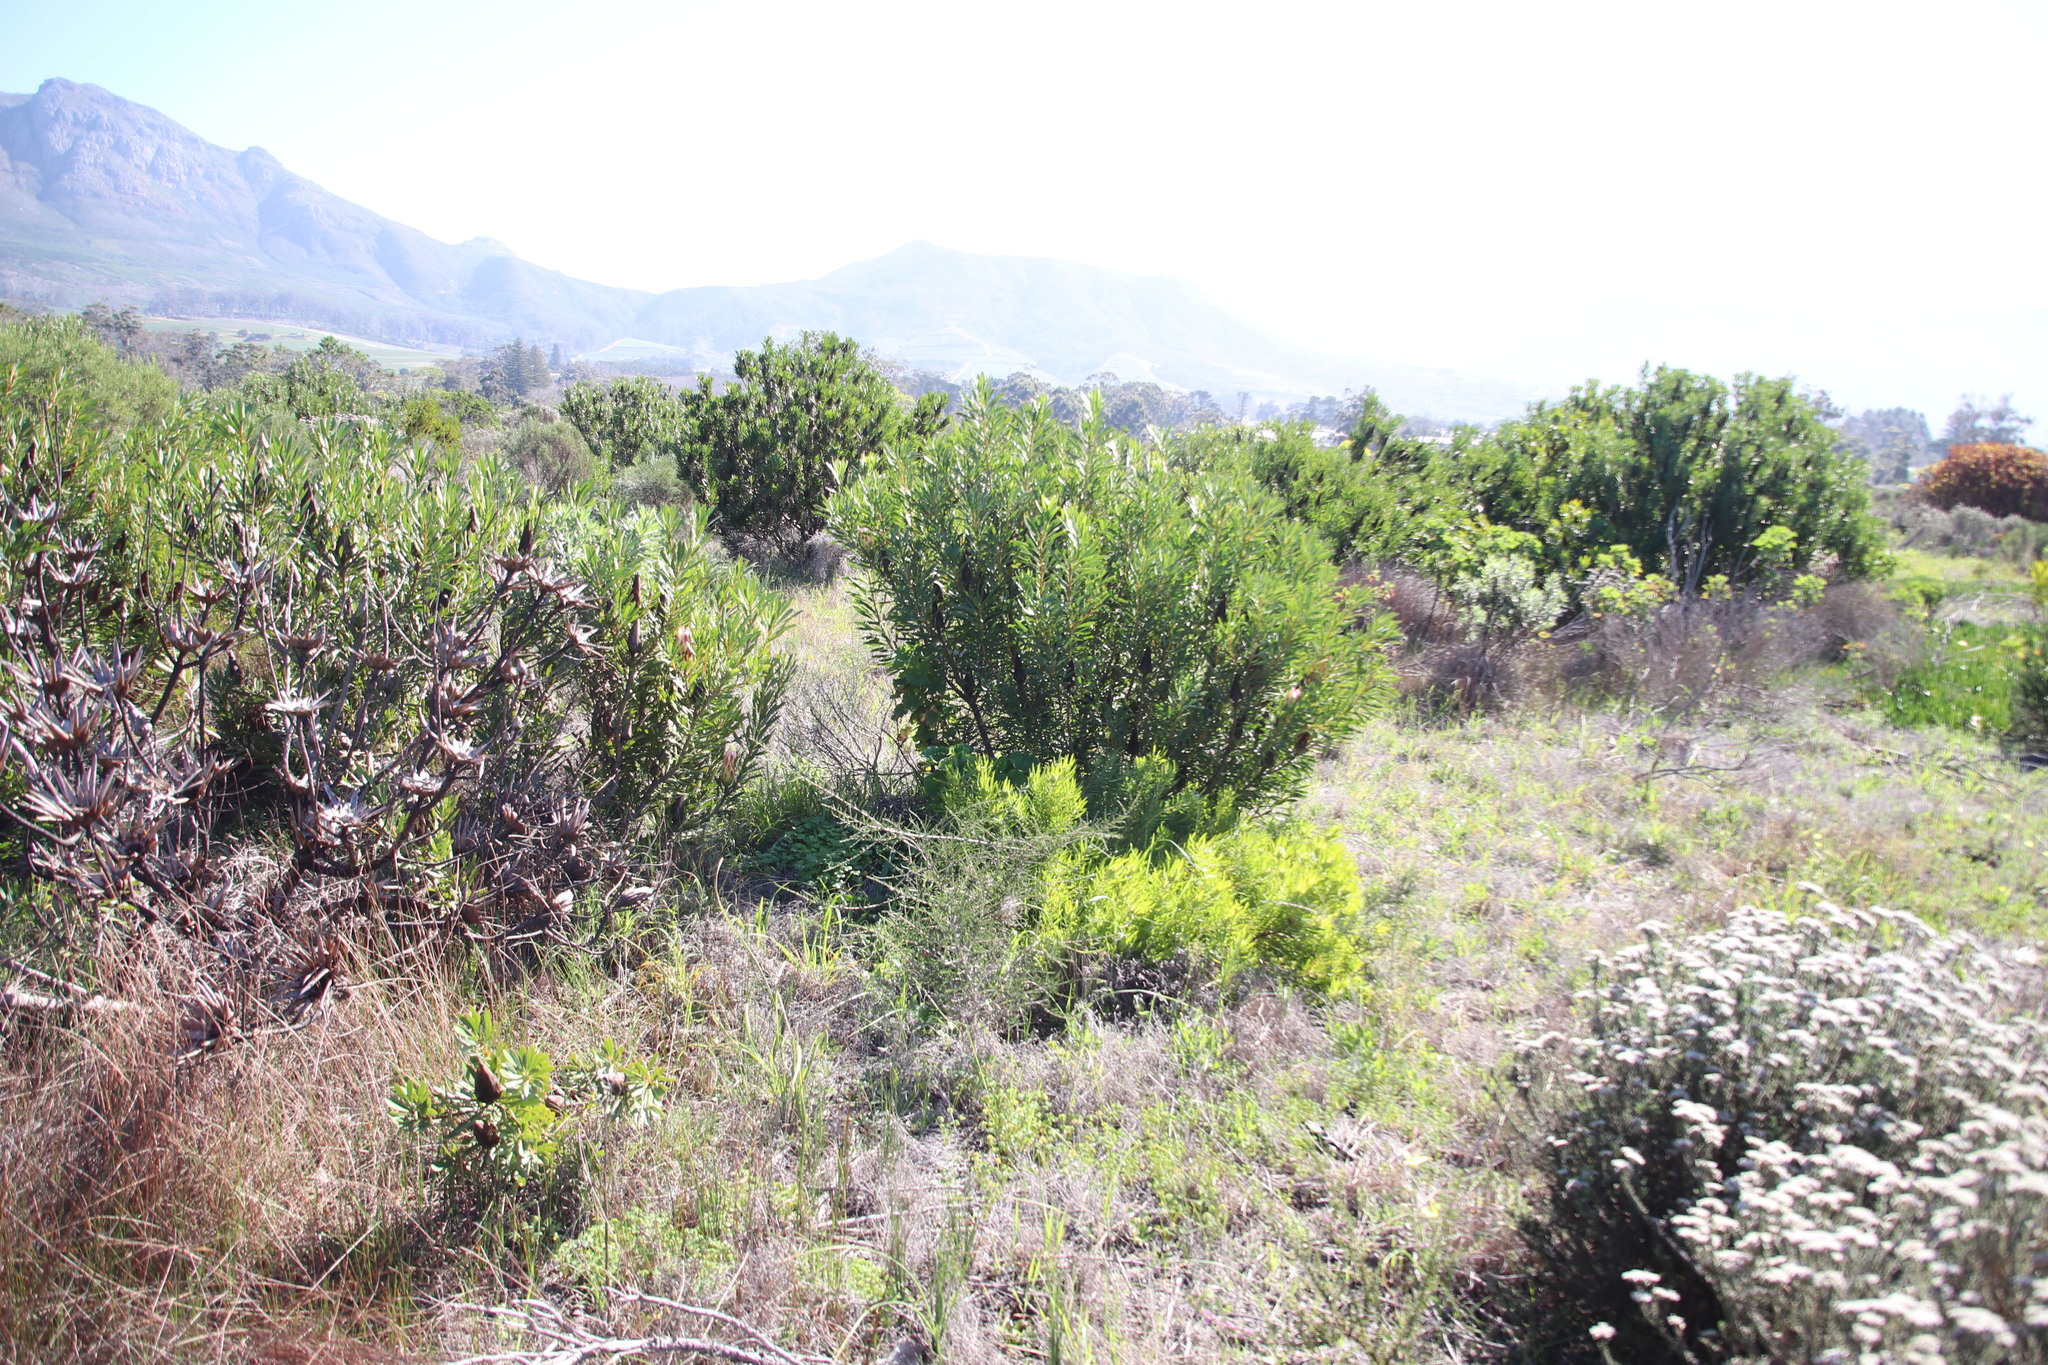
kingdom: Plantae
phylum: Tracheophyta
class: Magnoliopsida
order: Proteales
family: Proteaceae
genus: Leucadendron
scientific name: Leucadendron salignum
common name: Common sunshine conebush
